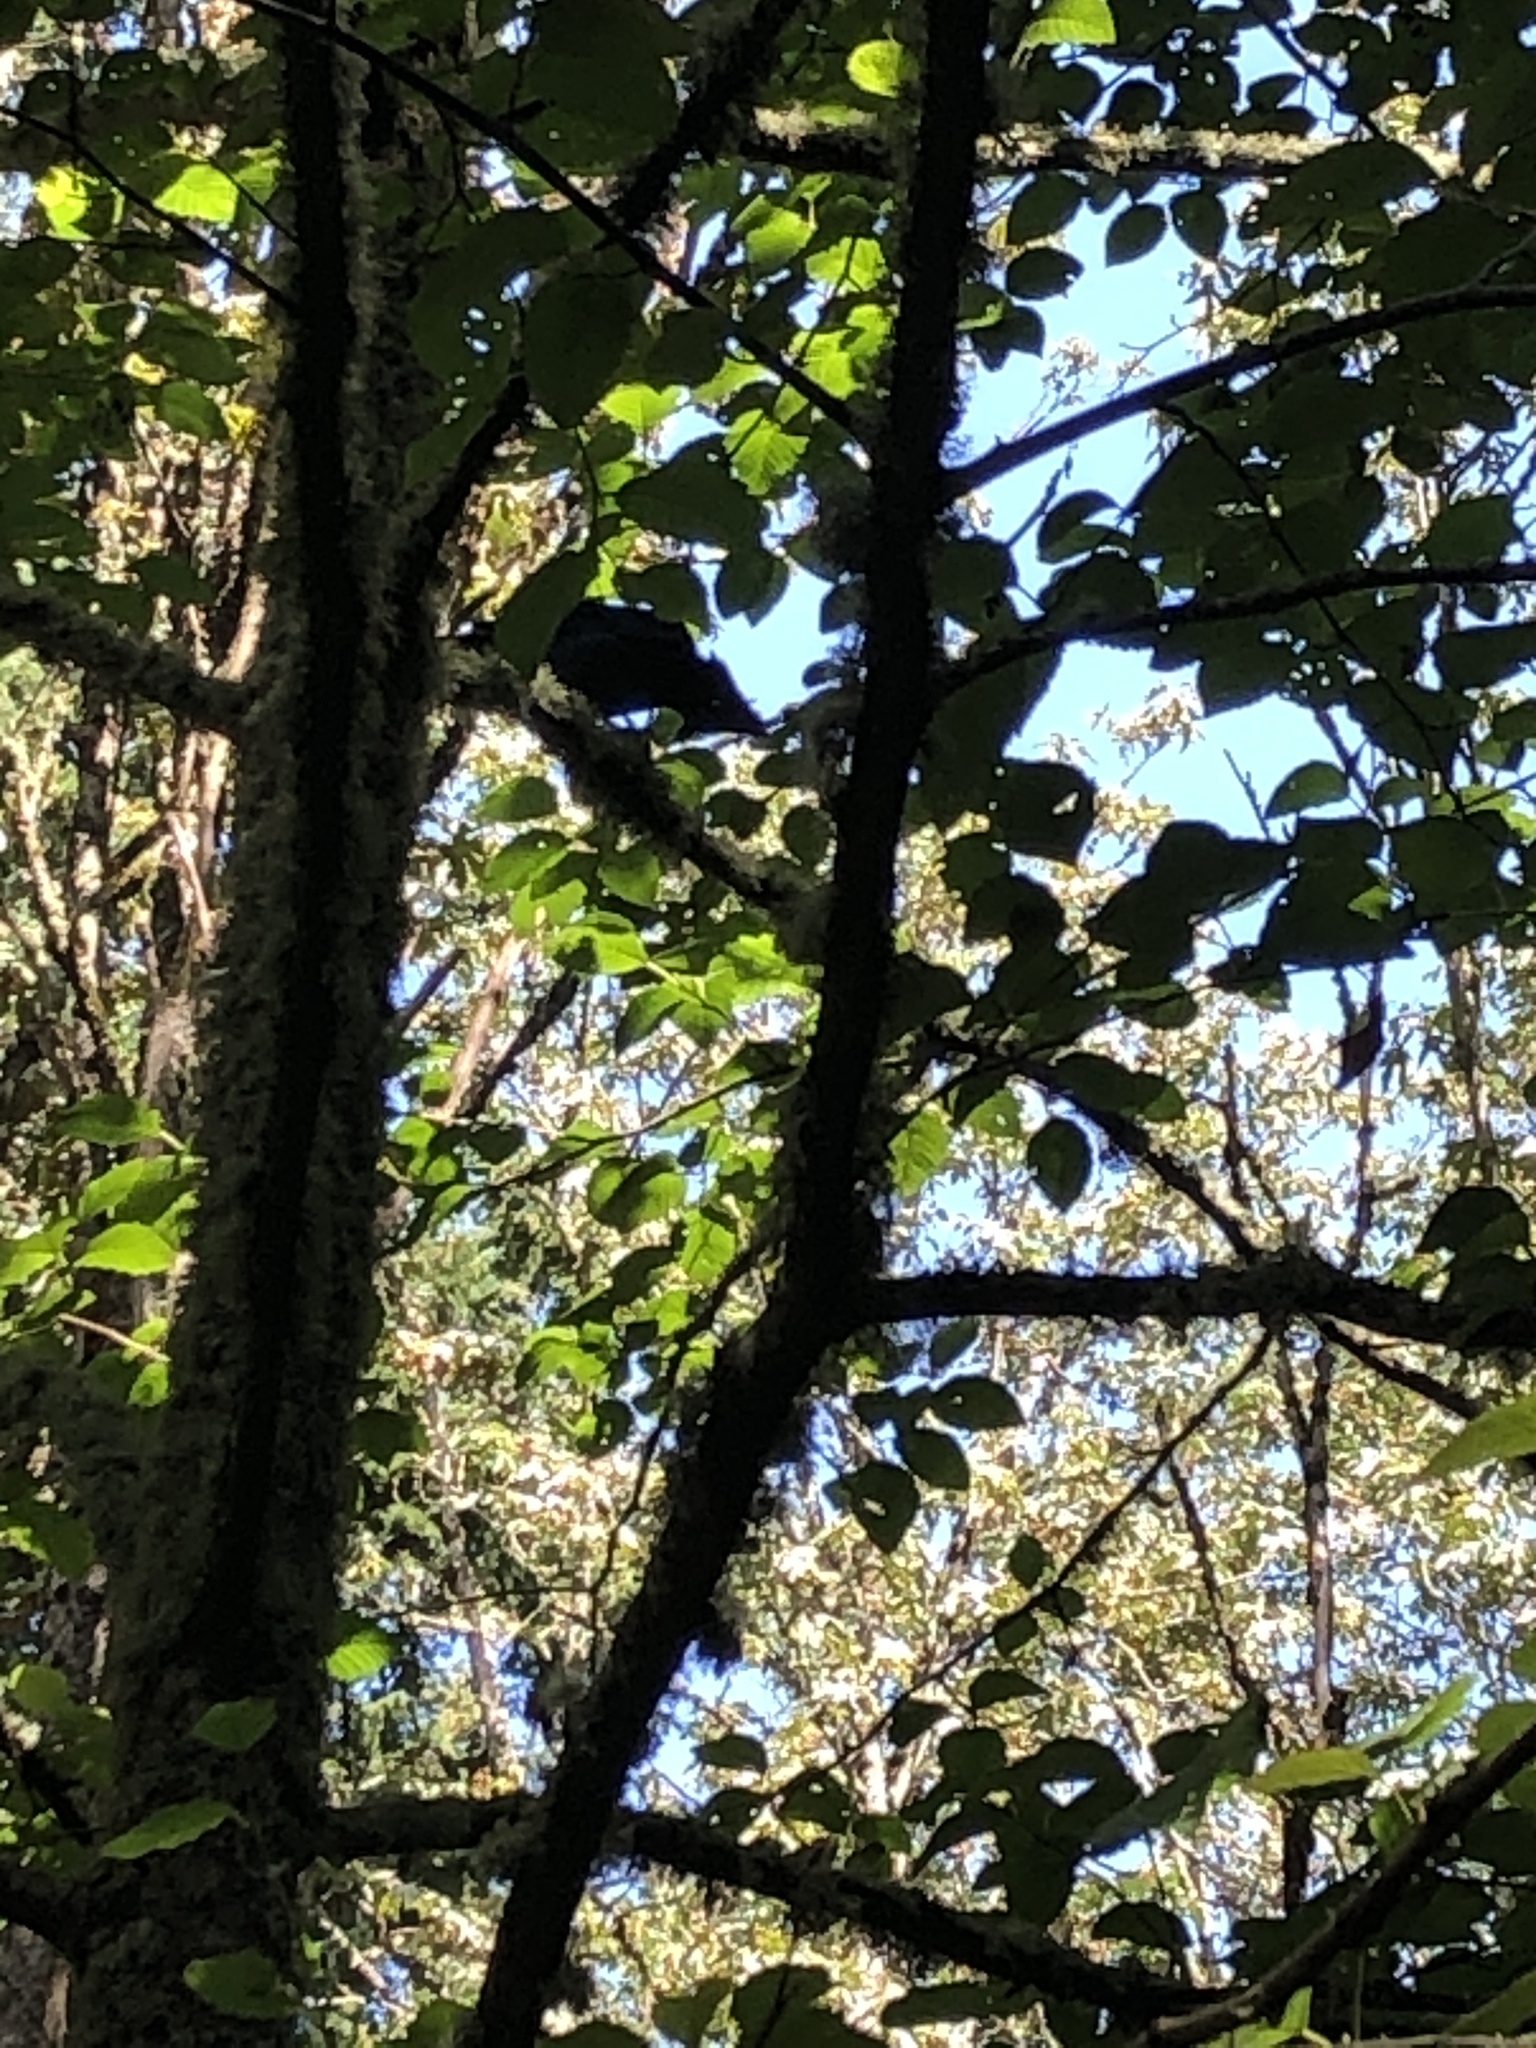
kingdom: Animalia
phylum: Chordata
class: Aves
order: Passeriformes
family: Corvidae
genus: Cyanocitta
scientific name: Cyanocitta stelleri
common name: Steller's jay
